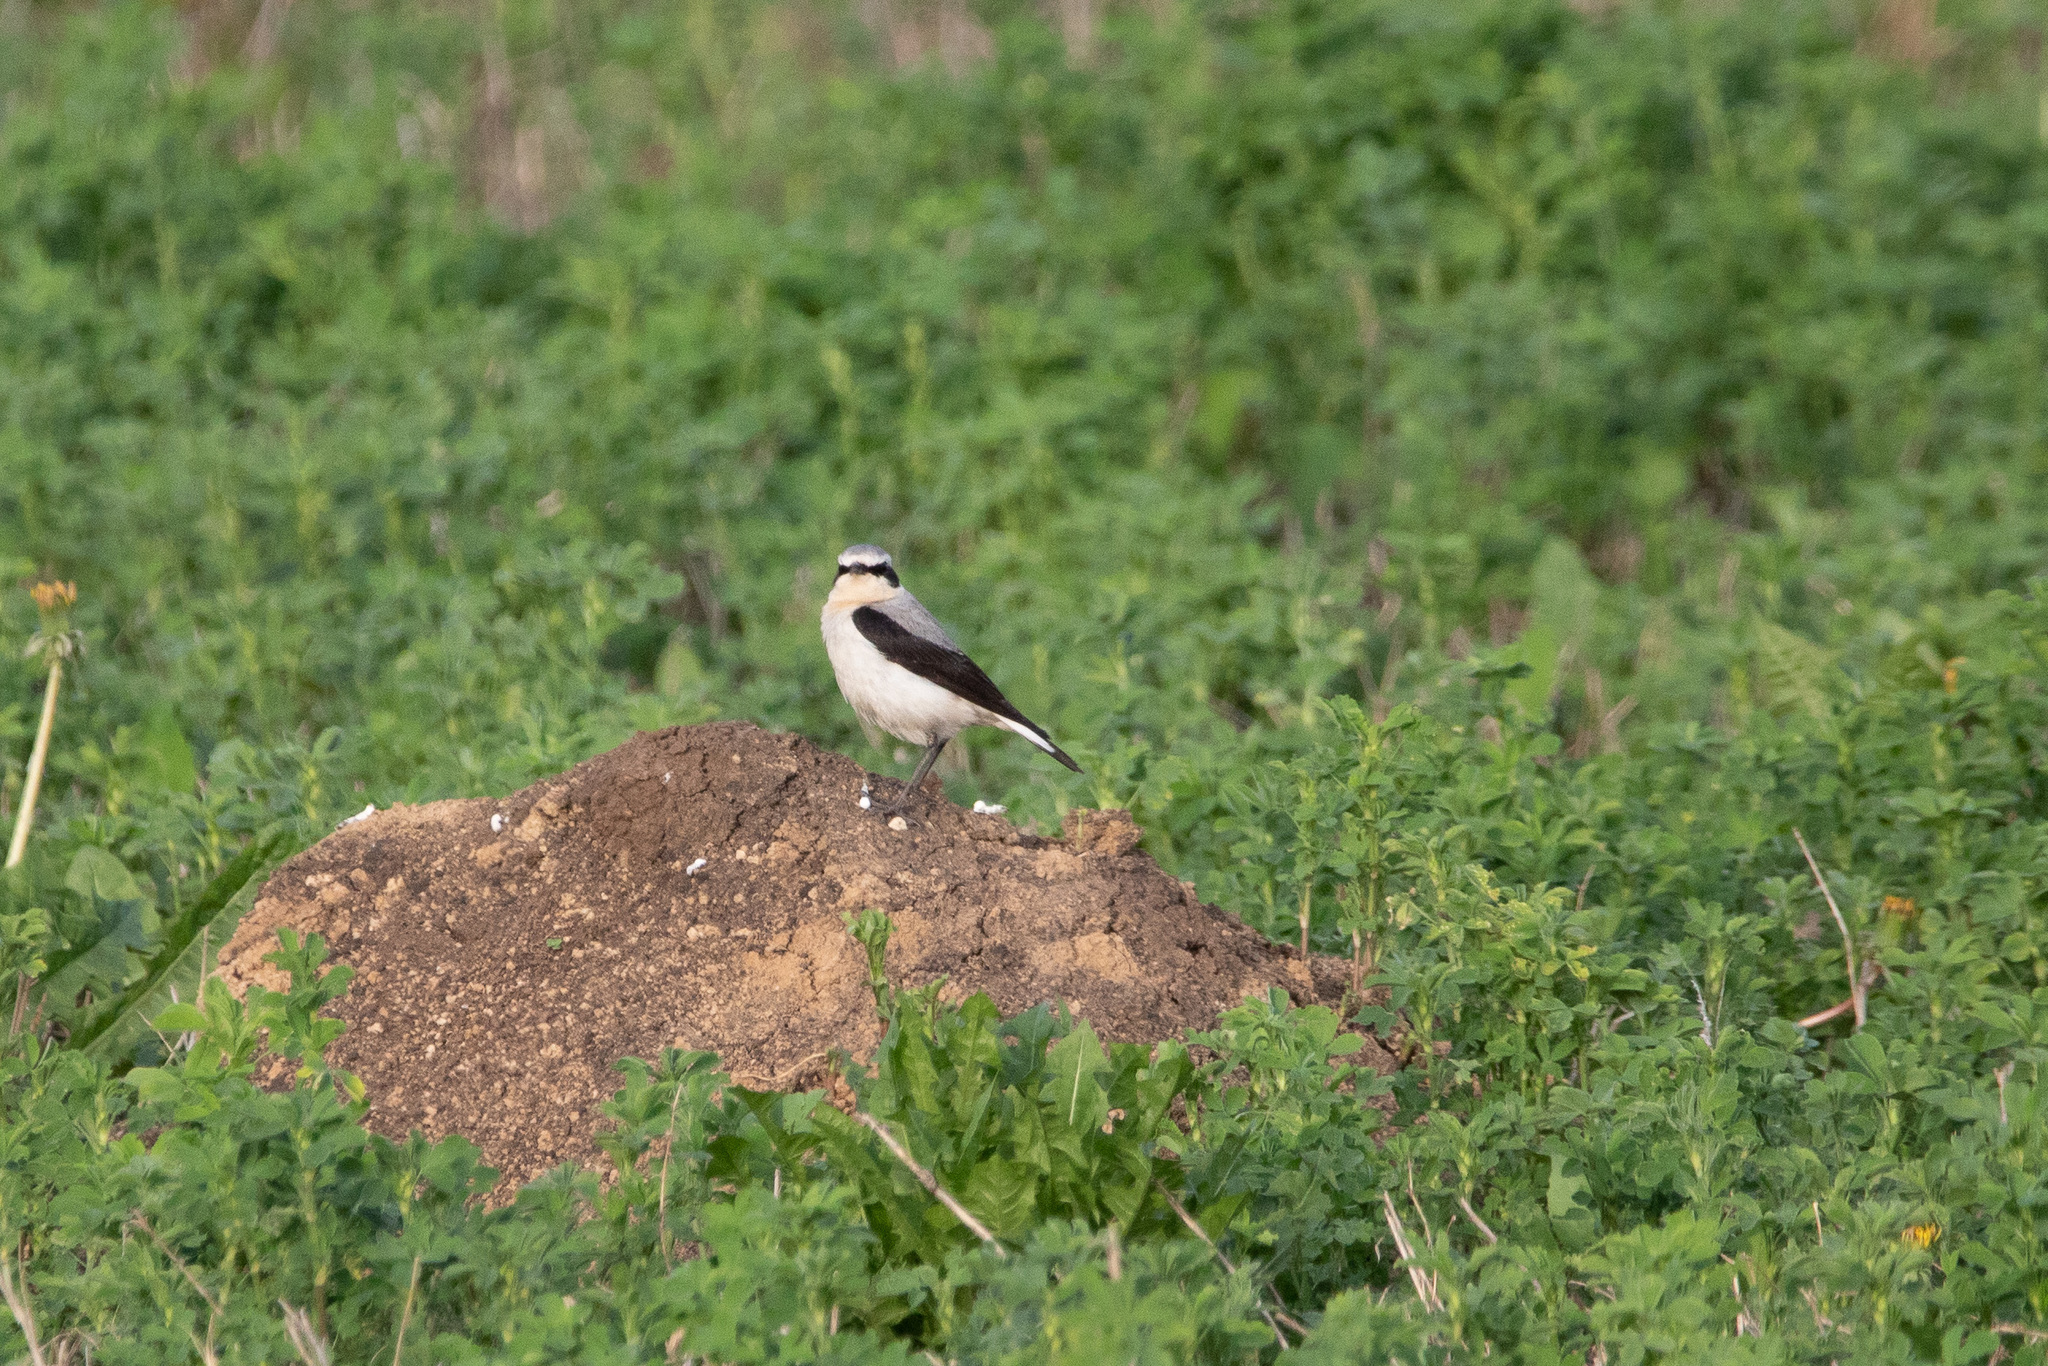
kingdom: Animalia
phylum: Chordata
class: Aves
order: Passeriformes
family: Muscicapidae
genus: Oenanthe
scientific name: Oenanthe oenanthe
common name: Northern wheatear
